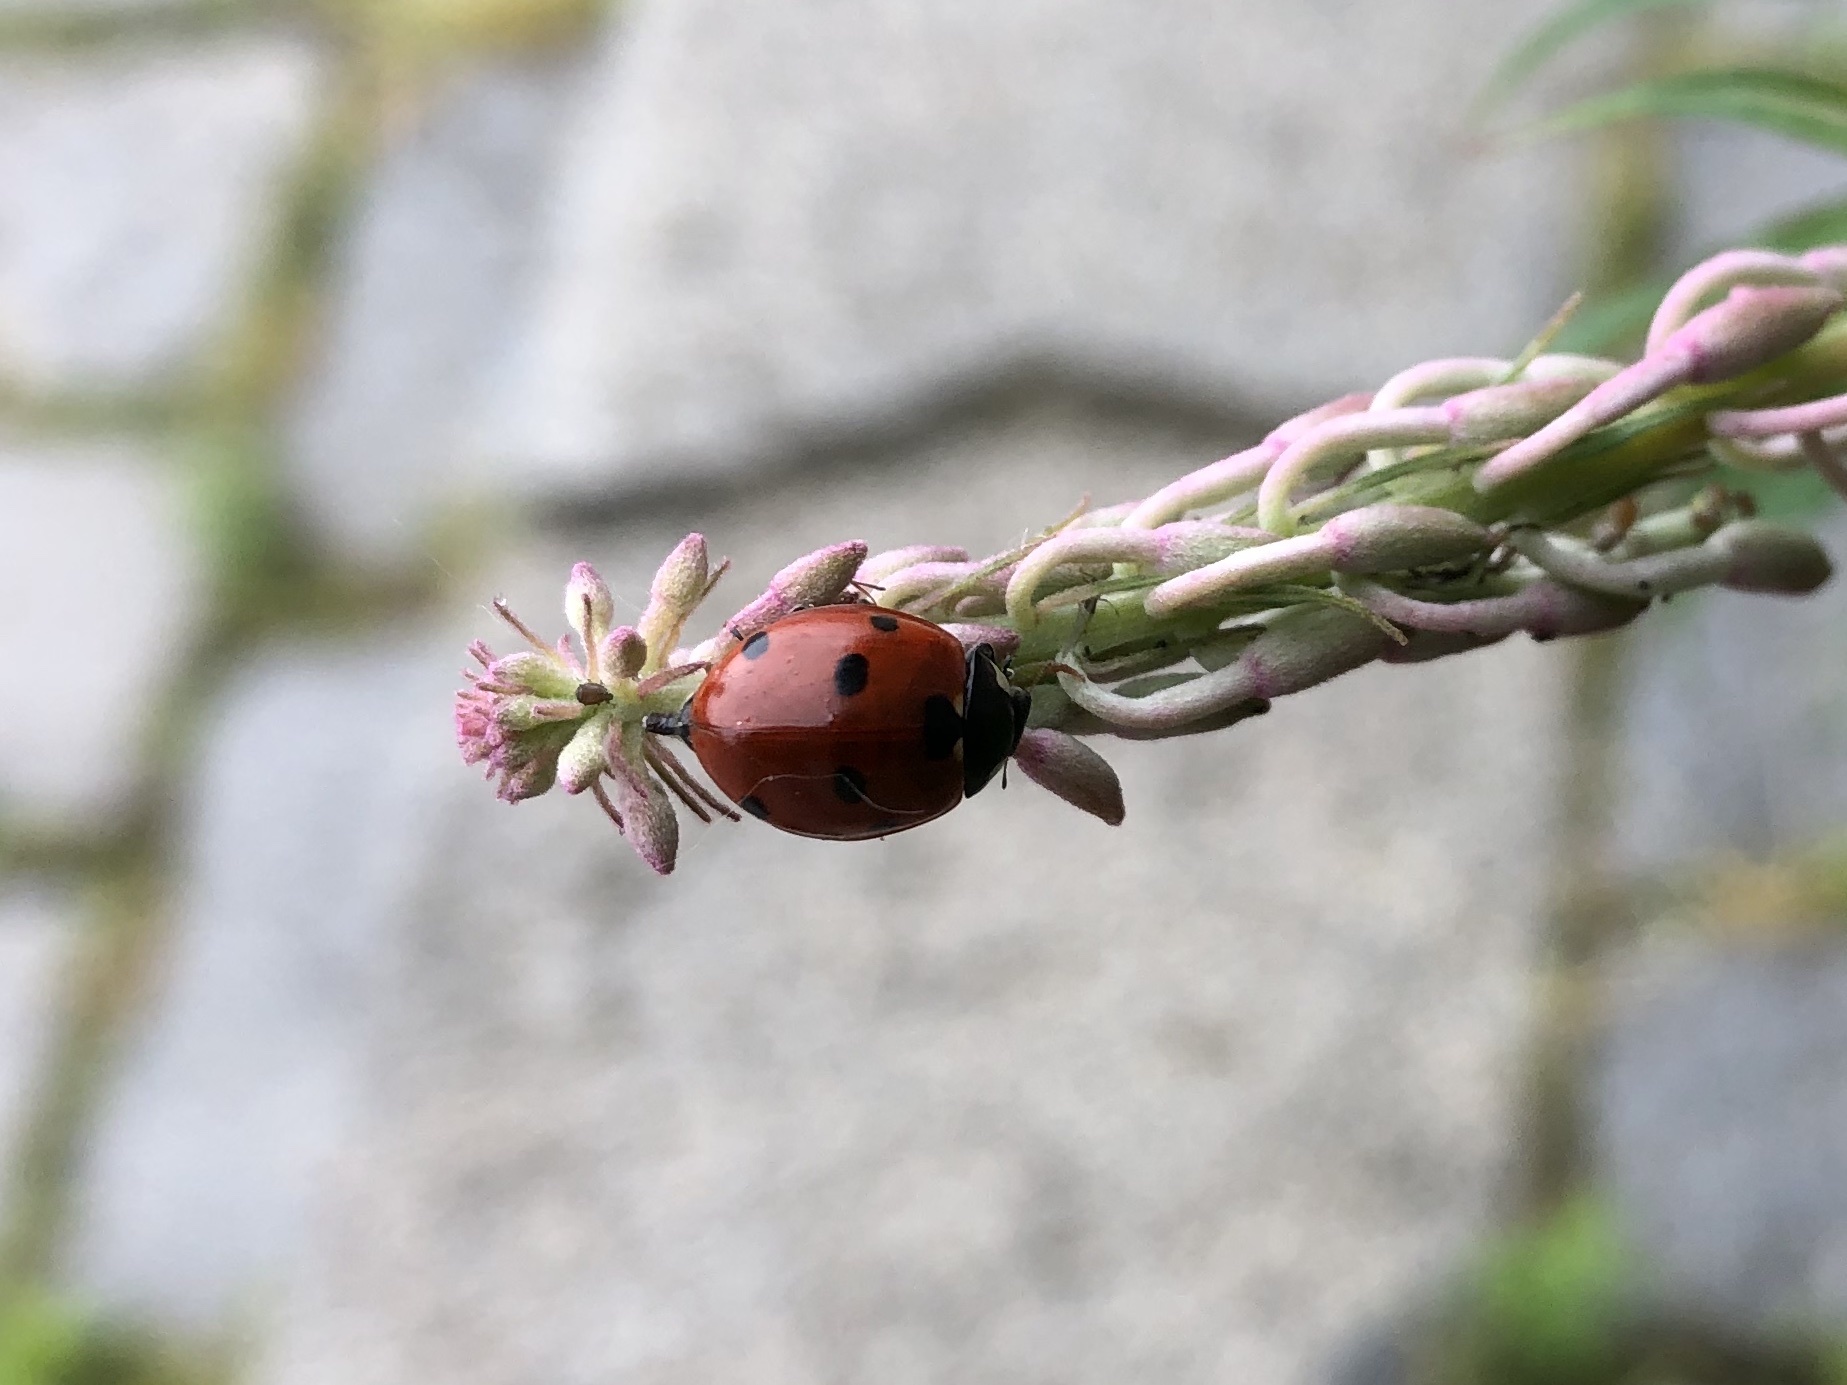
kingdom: Animalia
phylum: Arthropoda
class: Insecta
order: Coleoptera
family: Coccinellidae
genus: Coccinella
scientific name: Coccinella septempunctata
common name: Sevenspotted lady beetle
